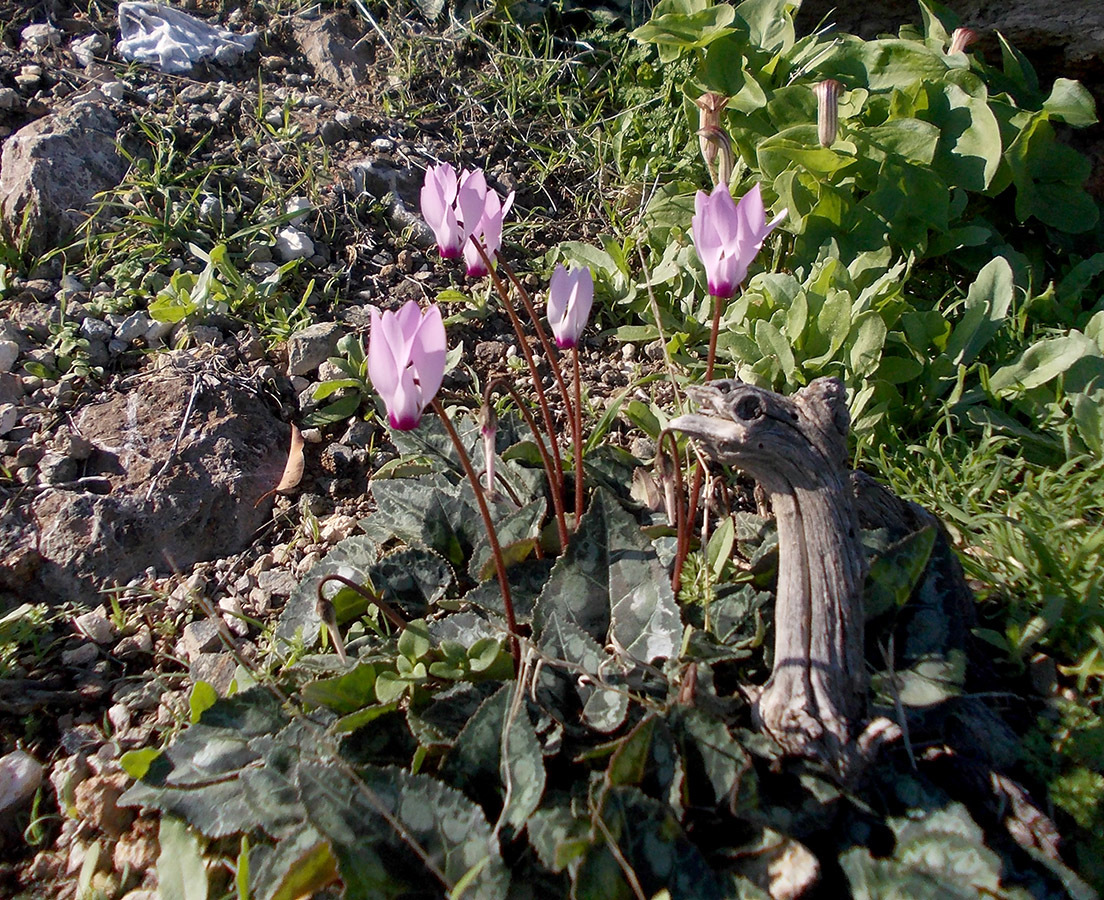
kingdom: Plantae
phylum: Tracheophyta
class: Magnoliopsida
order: Ericales
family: Primulaceae
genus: Cyclamen
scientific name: Cyclamen persicum
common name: Florist's cyclamen
